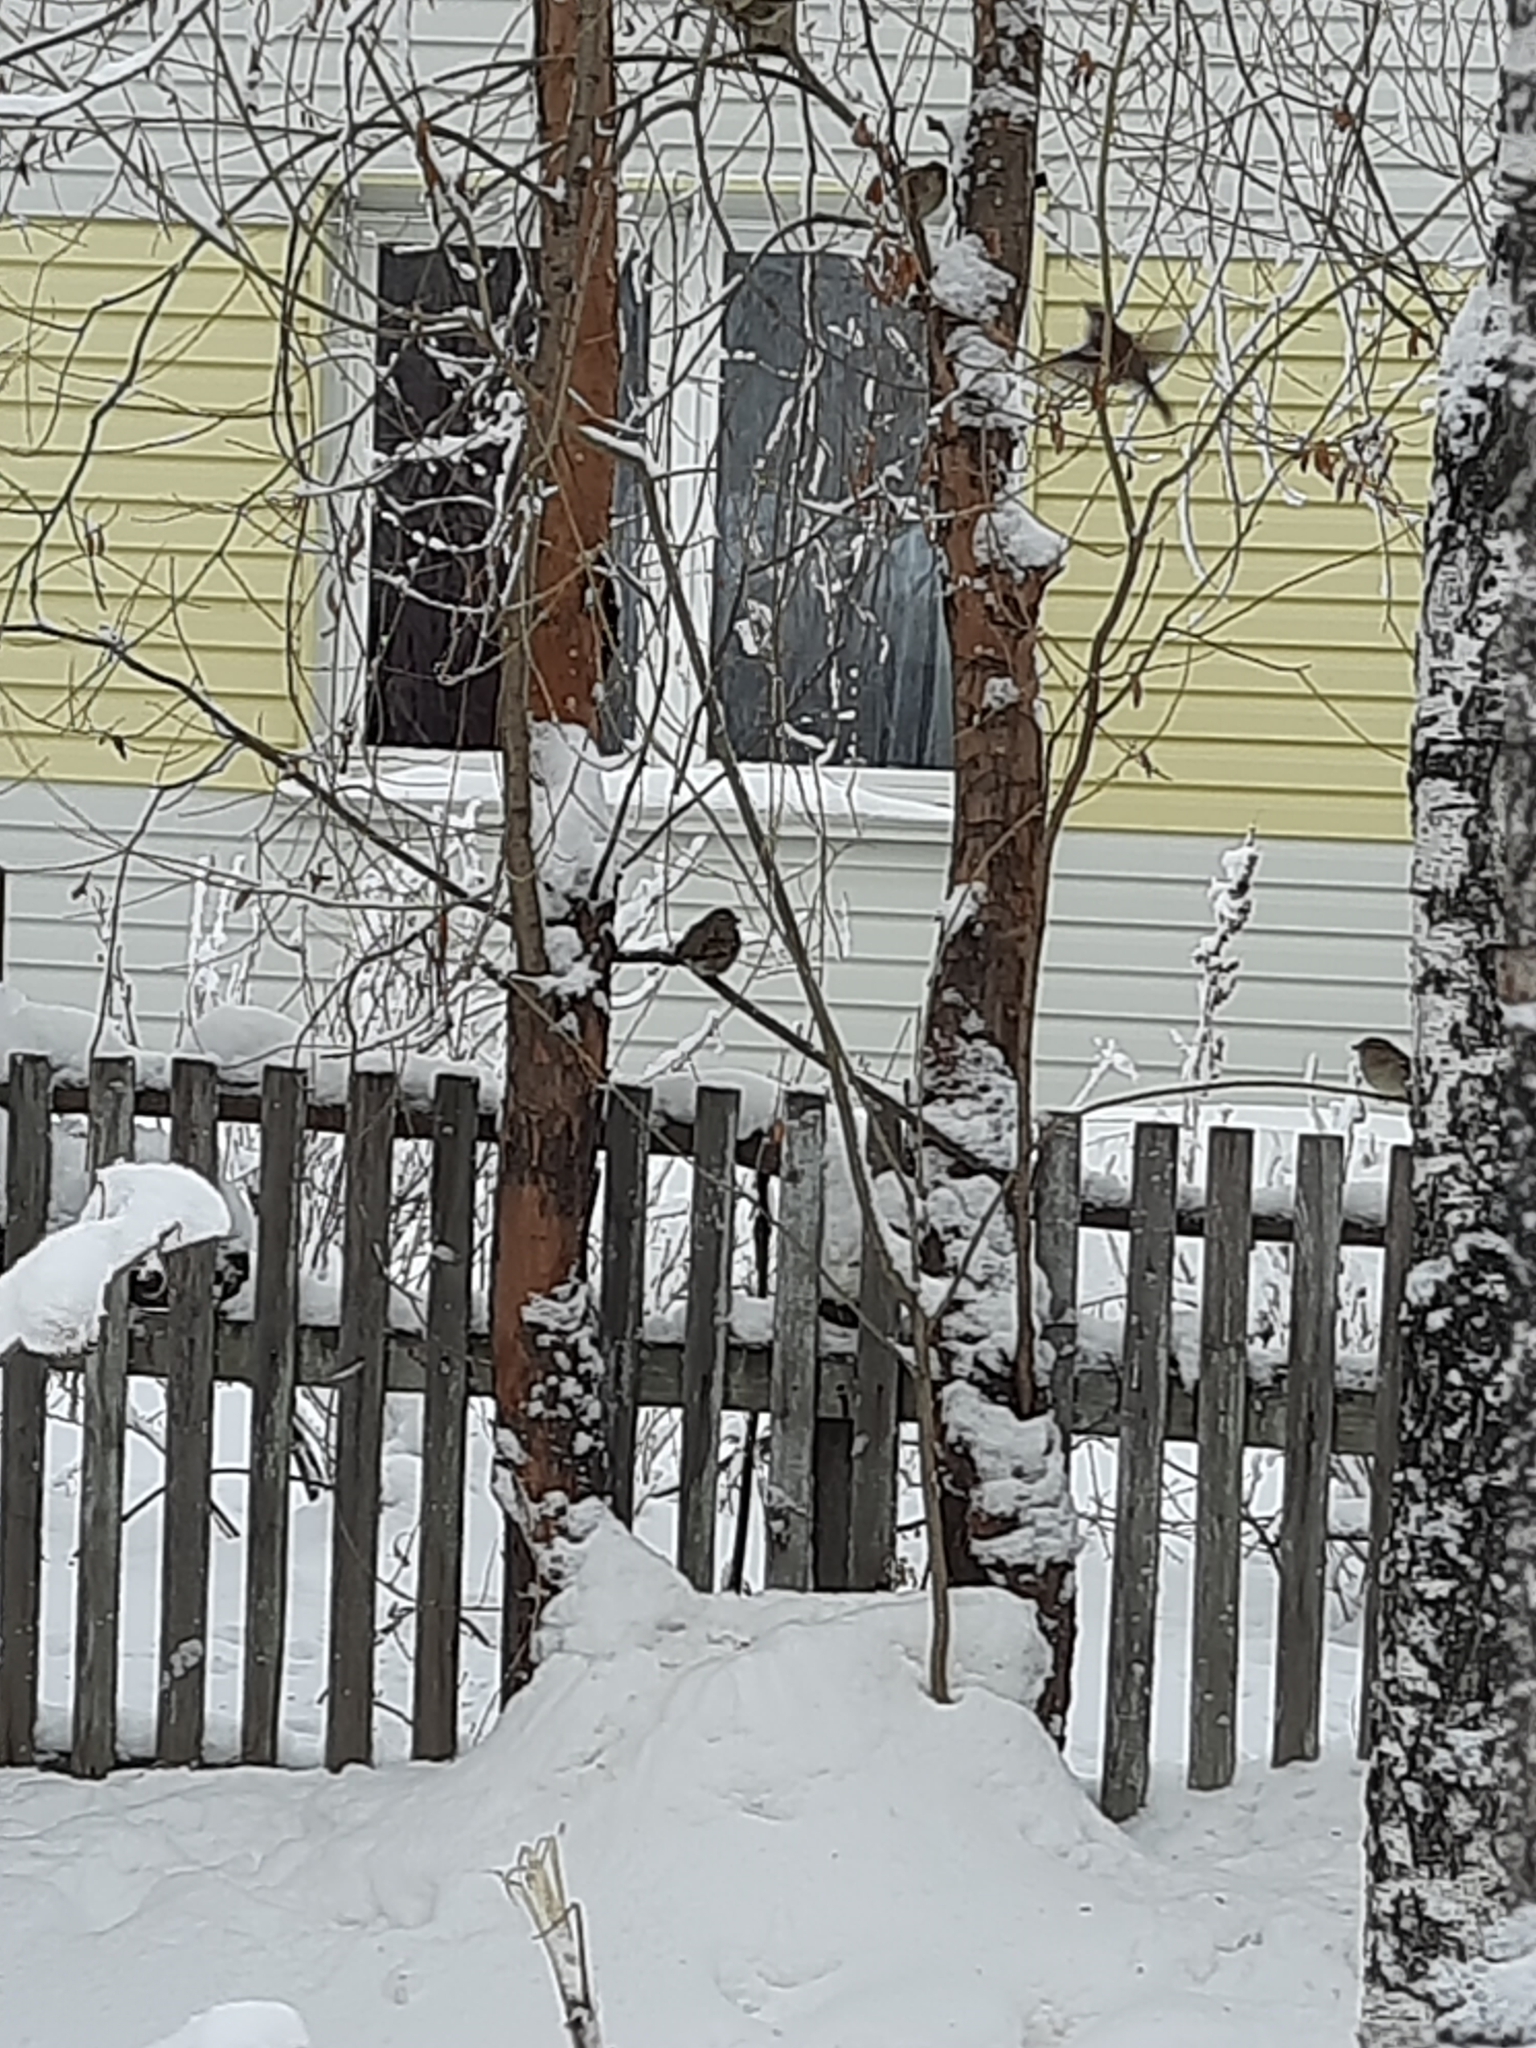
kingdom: Animalia
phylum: Chordata
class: Aves
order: Passeriformes
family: Passeridae
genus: Passer
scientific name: Passer domesticus
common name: House sparrow
